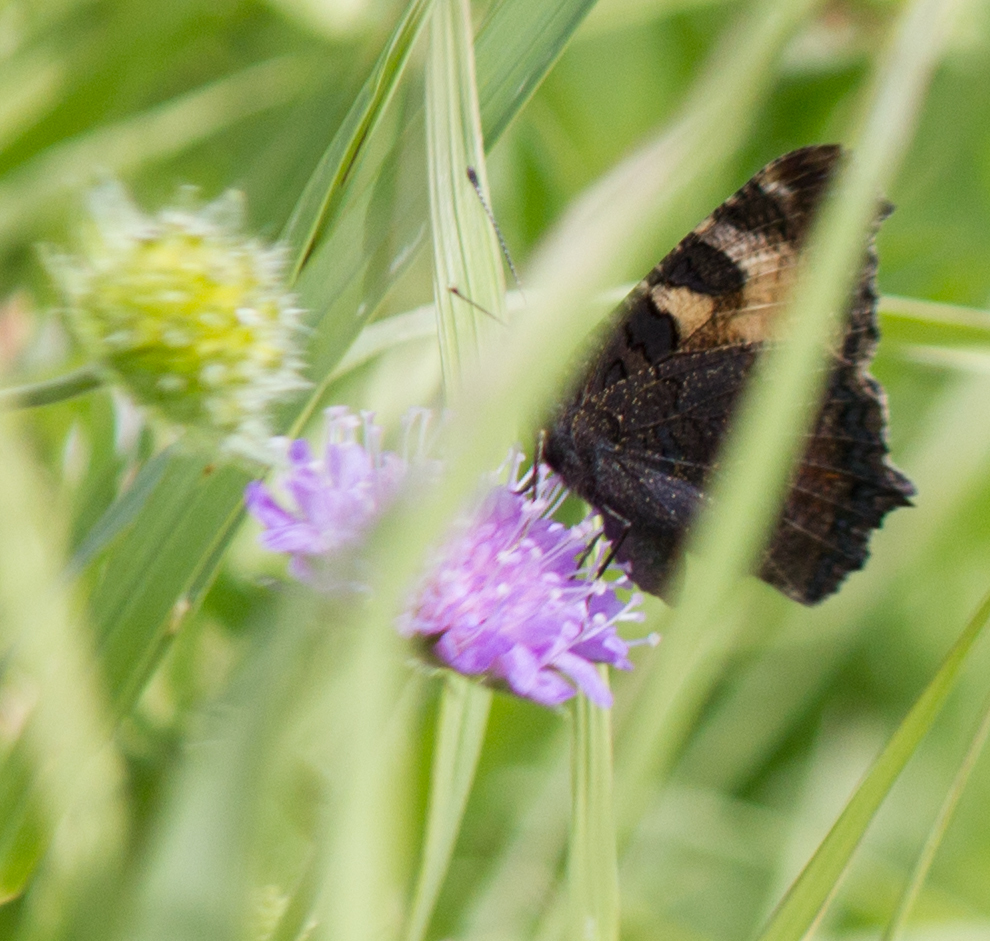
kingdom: Animalia
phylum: Arthropoda
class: Insecta
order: Lepidoptera
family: Nymphalidae
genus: Aglais
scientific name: Aglais urticae
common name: Small tortoiseshell
